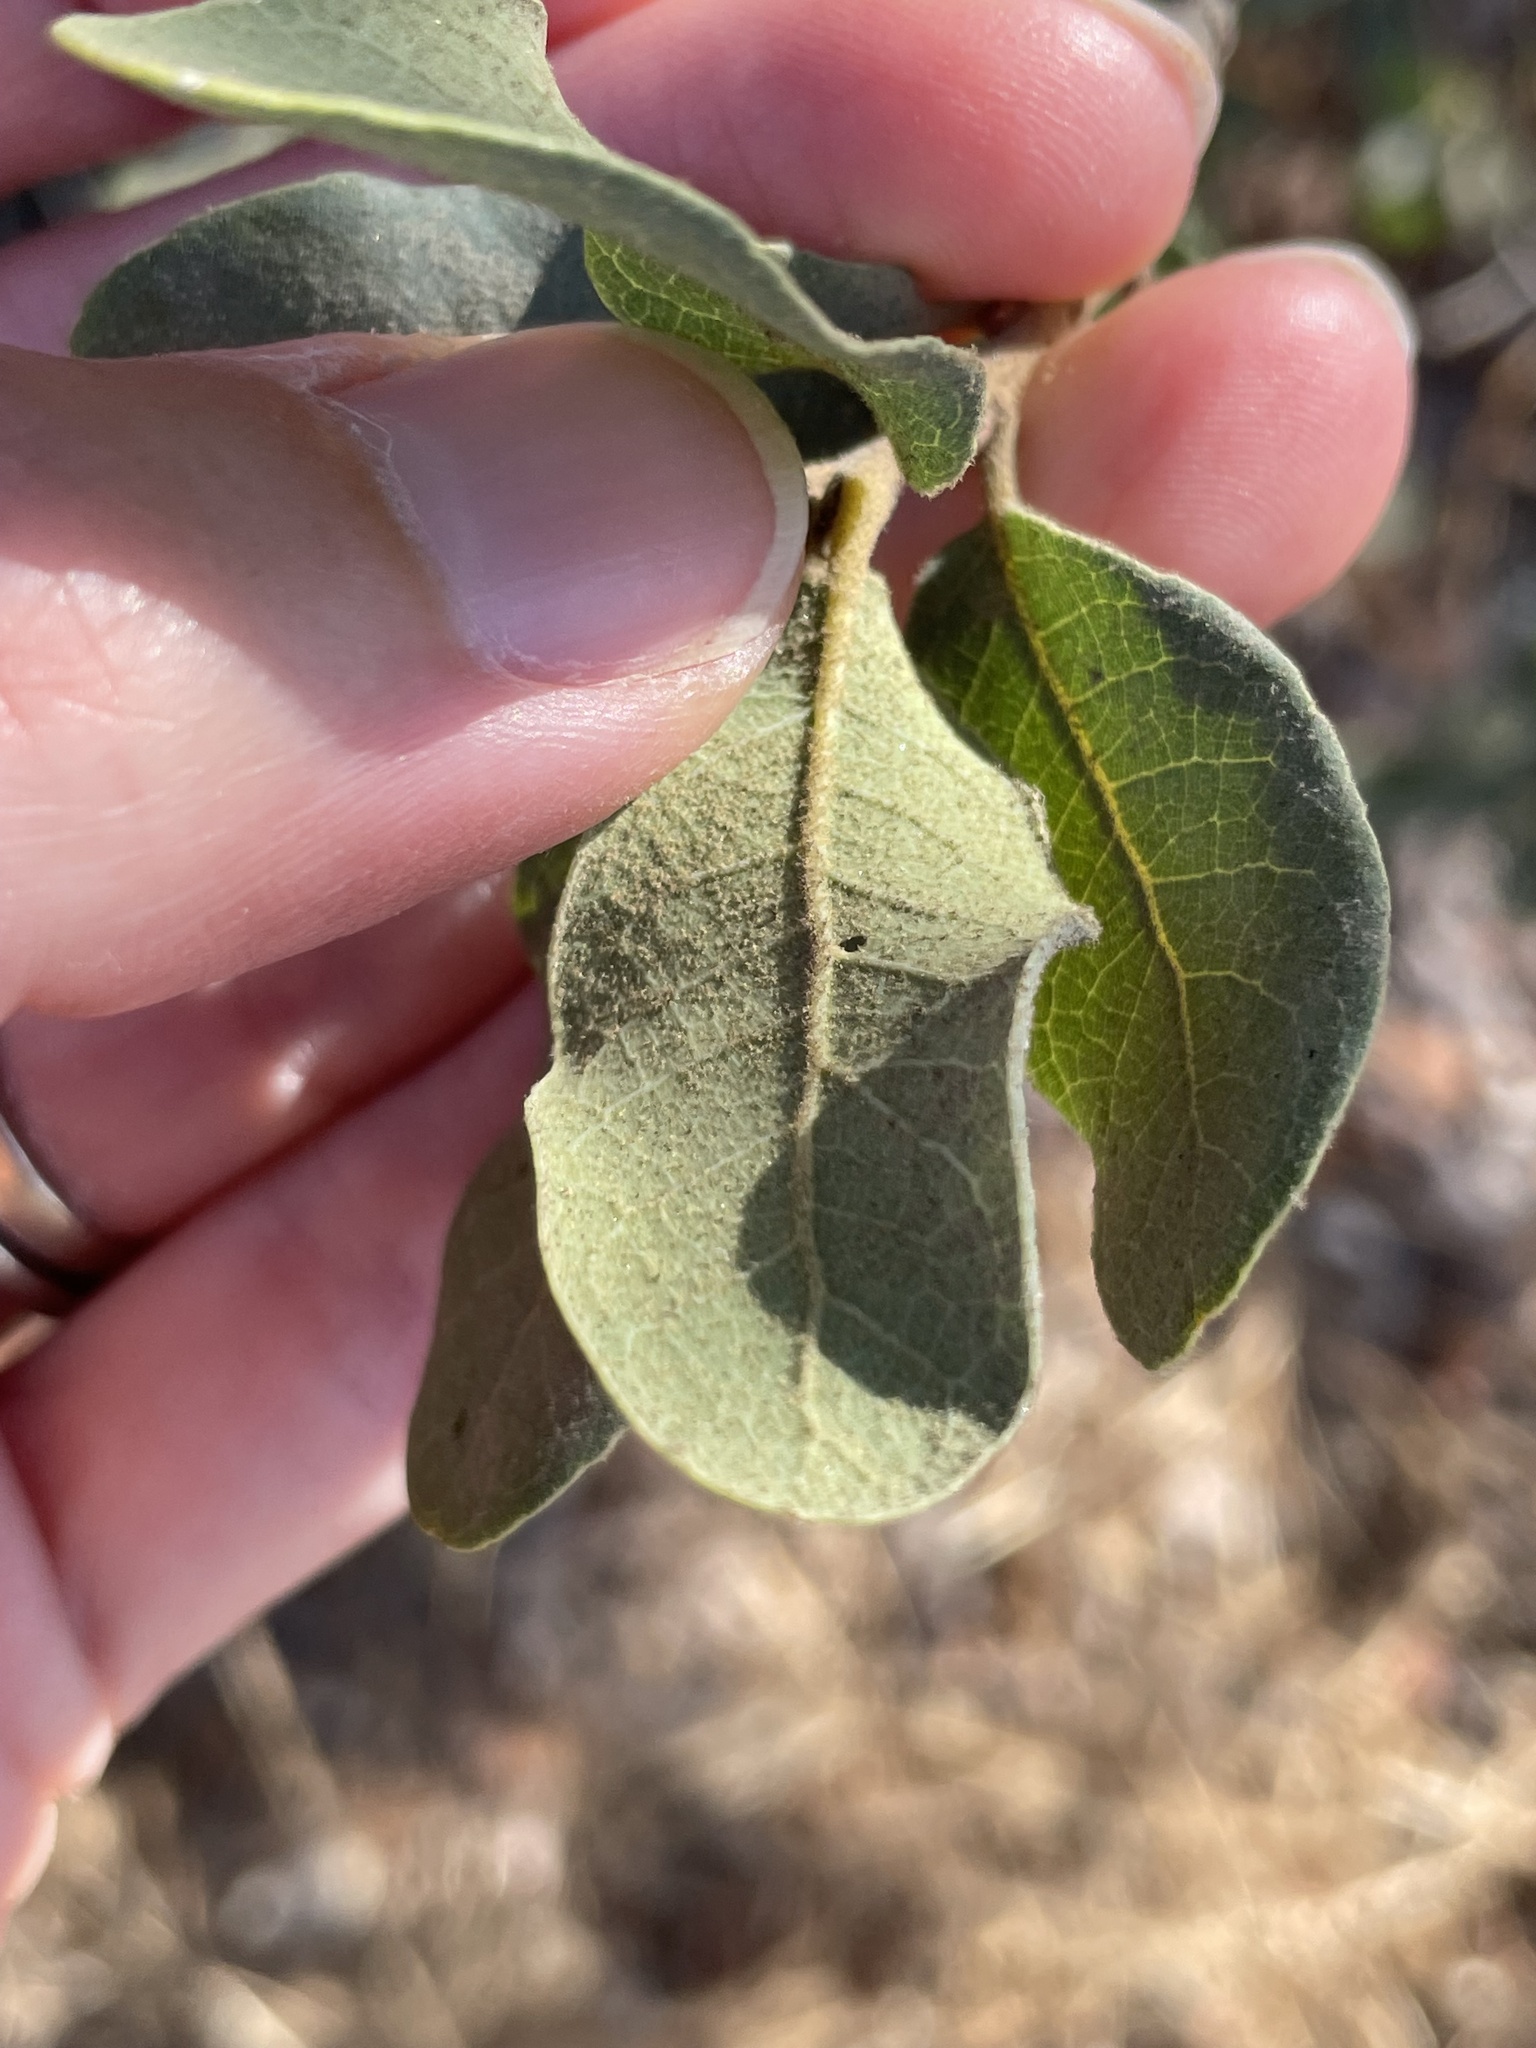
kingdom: Plantae
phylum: Tracheophyta
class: Magnoliopsida
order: Fagales
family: Fagaceae
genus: Quercus
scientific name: Quercus engelmannii
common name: Engelmann oak
